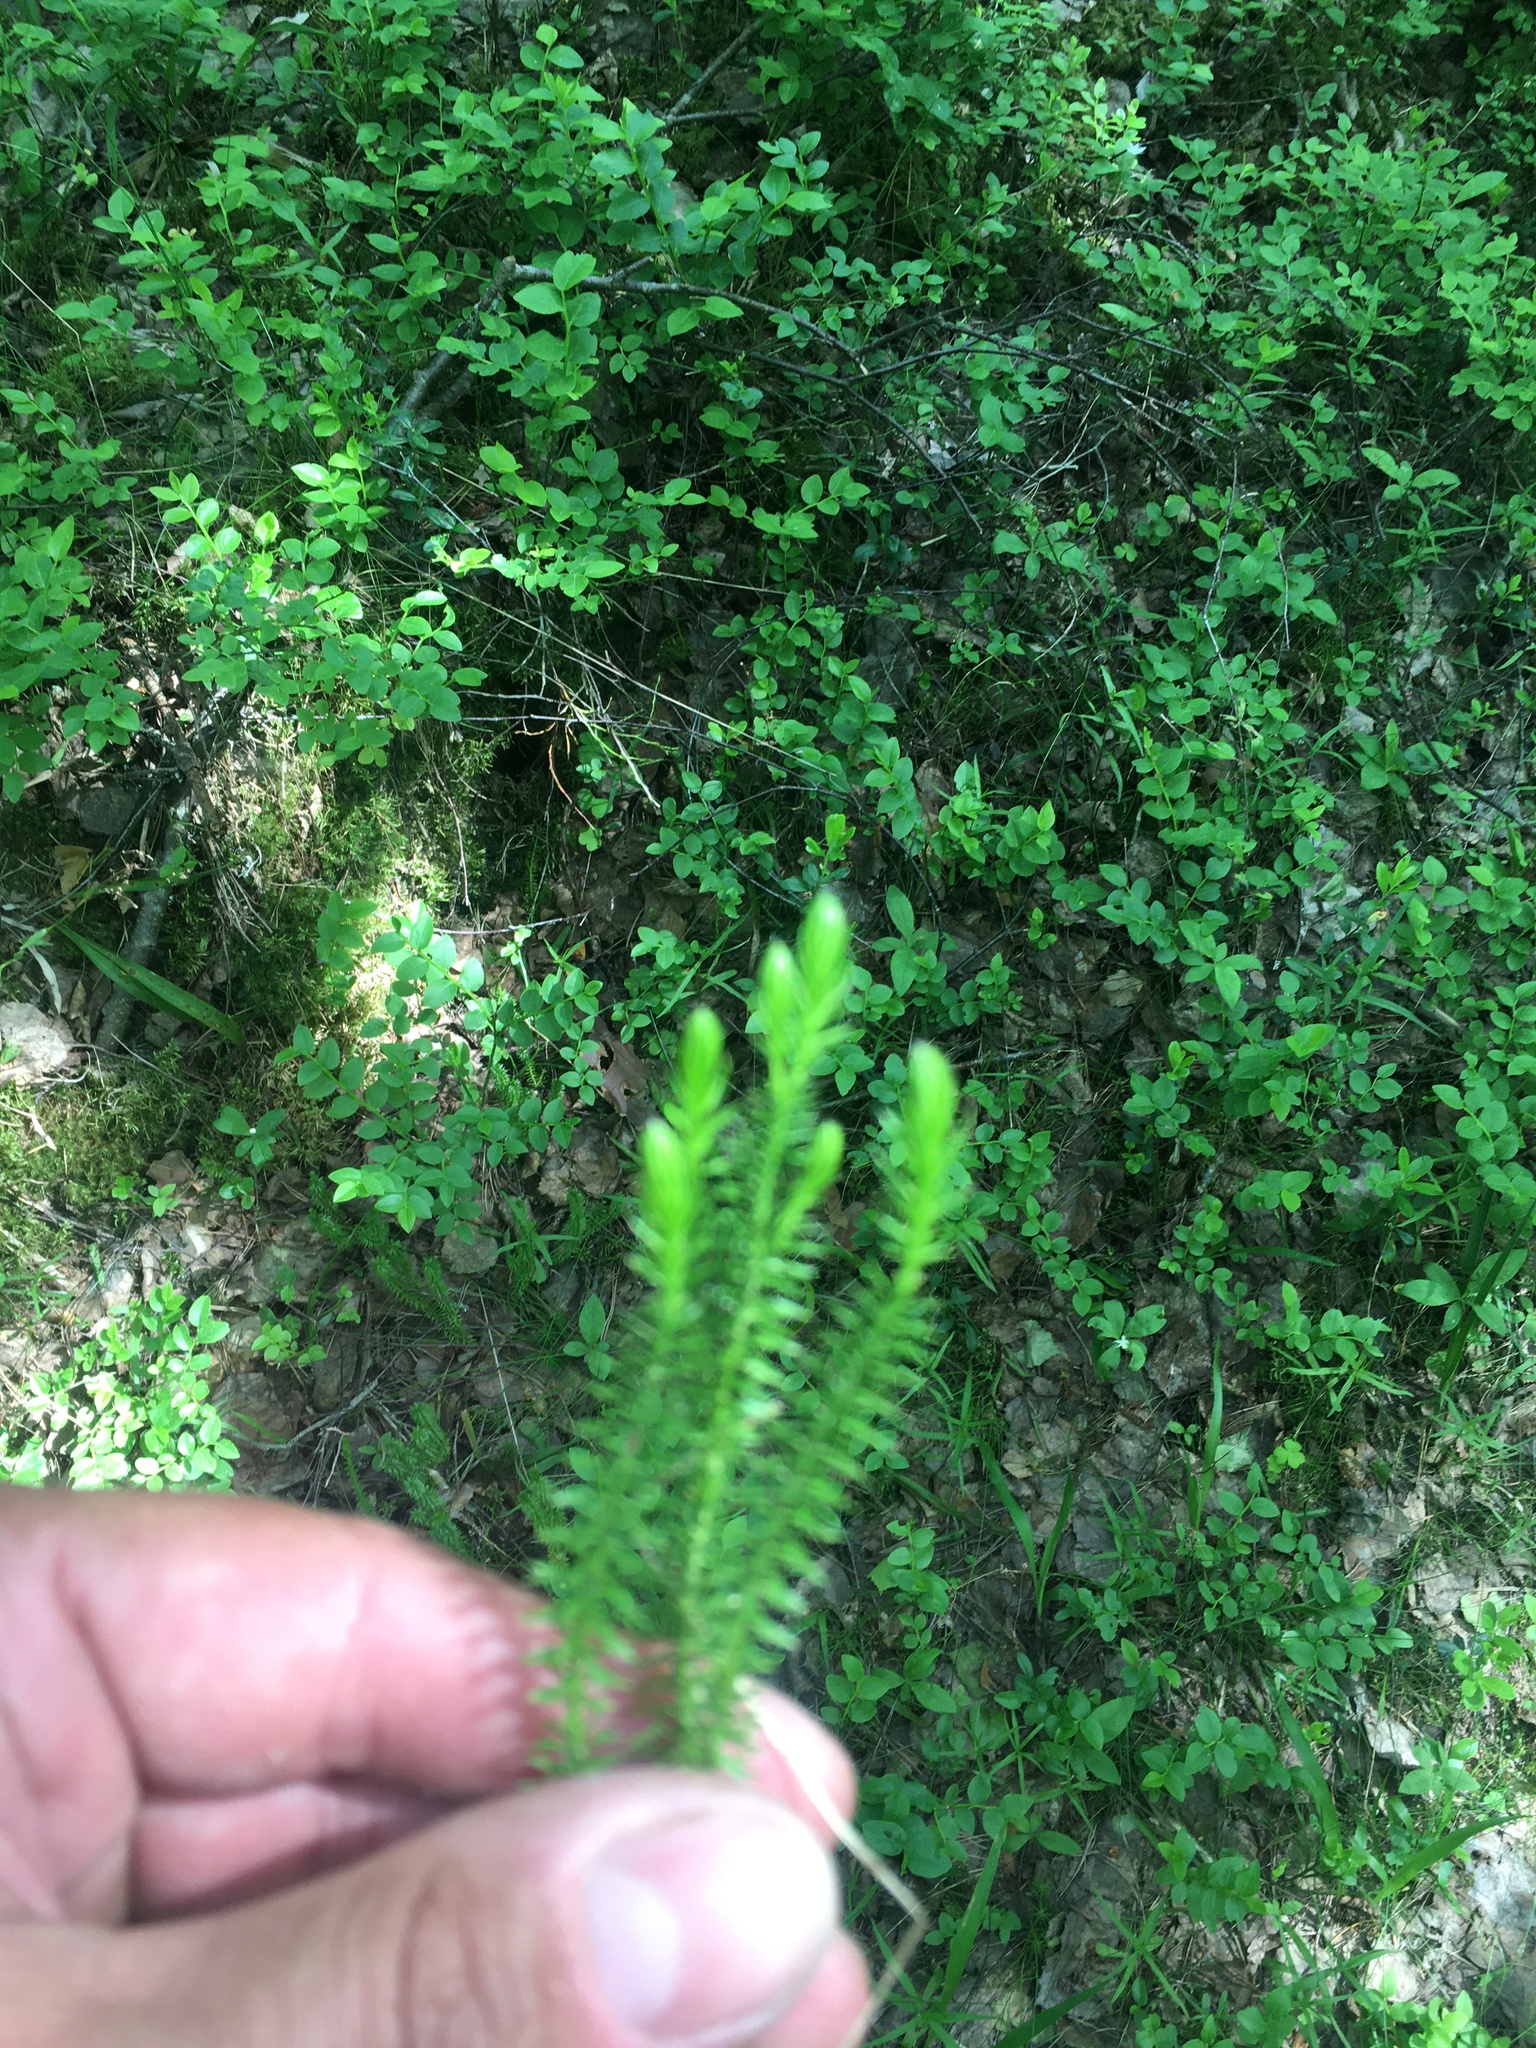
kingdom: Plantae
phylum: Tracheophyta
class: Lycopodiopsida
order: Lycopodiales
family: Lycopodiaceae
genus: Spinulum
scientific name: Spinulum annotinum
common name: Interrupted club-moss
